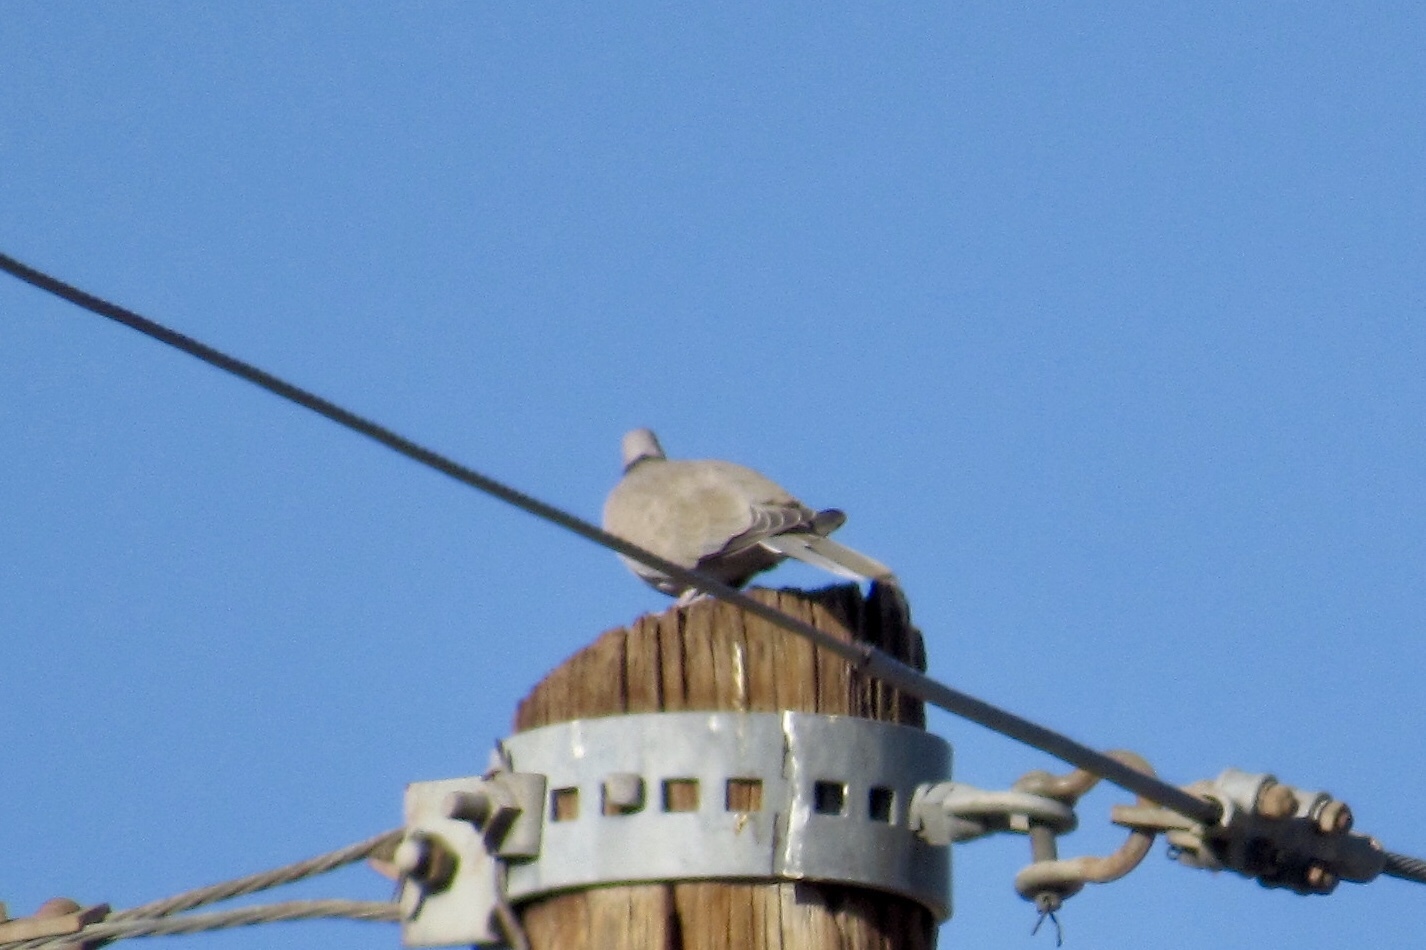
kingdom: Animalia
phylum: Chordata
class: Aves
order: Columbiformes
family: Columbidae
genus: Streptopelia
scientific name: Streptopelia decaocto
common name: Eurasian collared dove
